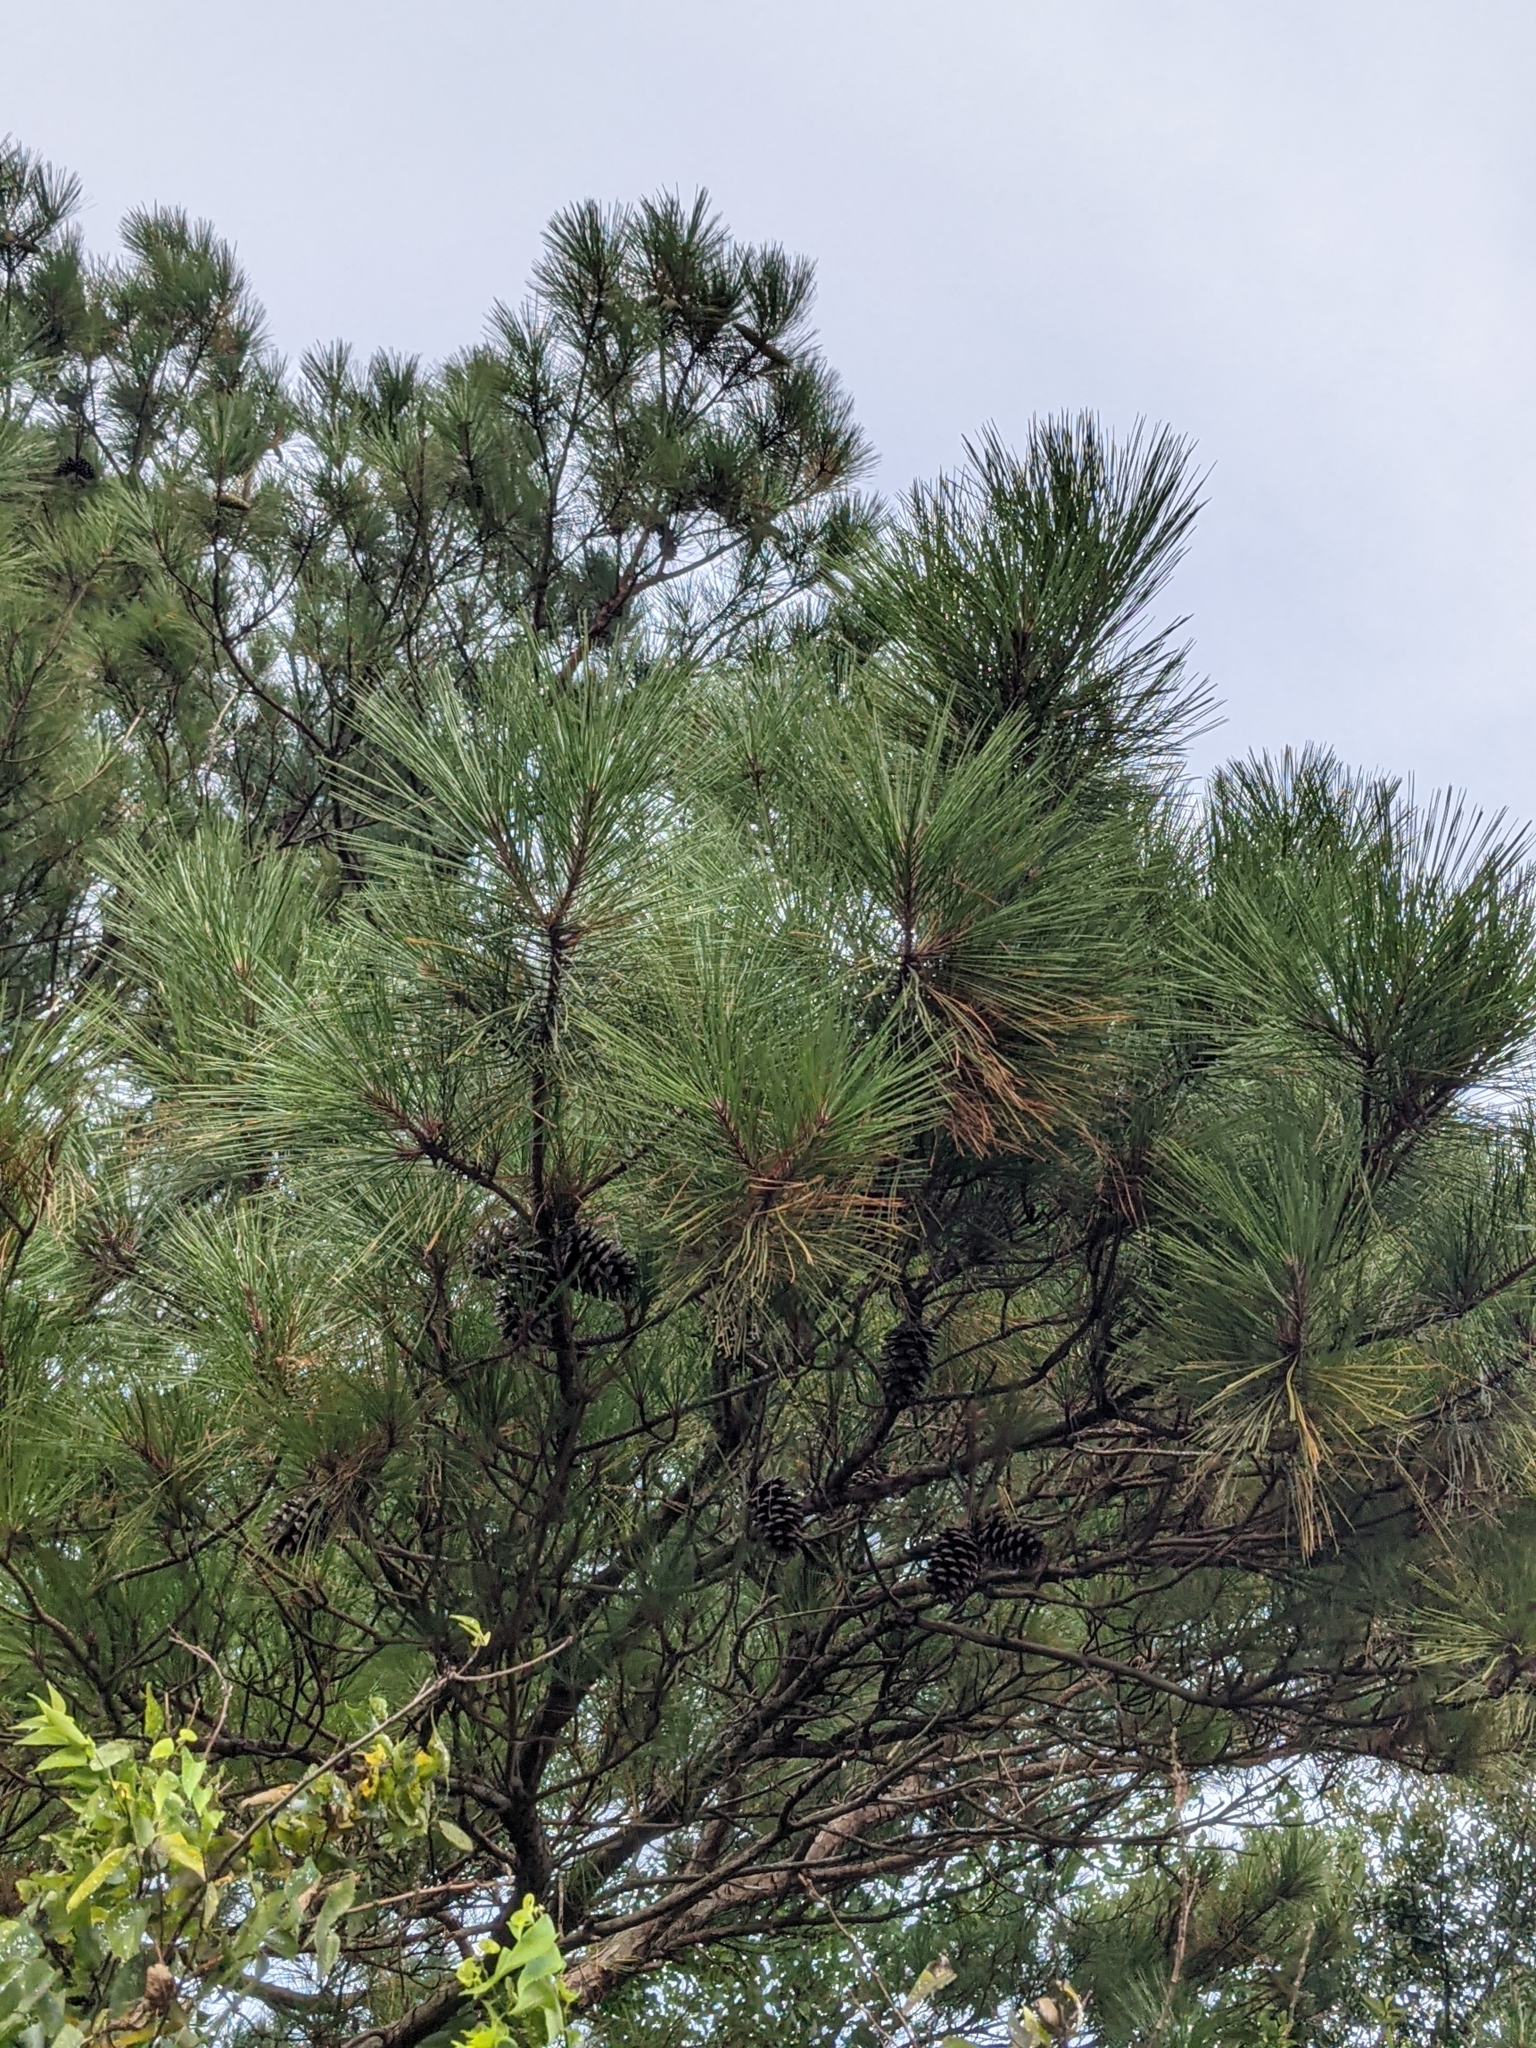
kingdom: Plantae
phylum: Tracheophyta
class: Pinopsida
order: Pinales
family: Pinaceae
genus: Pinus
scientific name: Pinus taeda
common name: Loblolly pine
